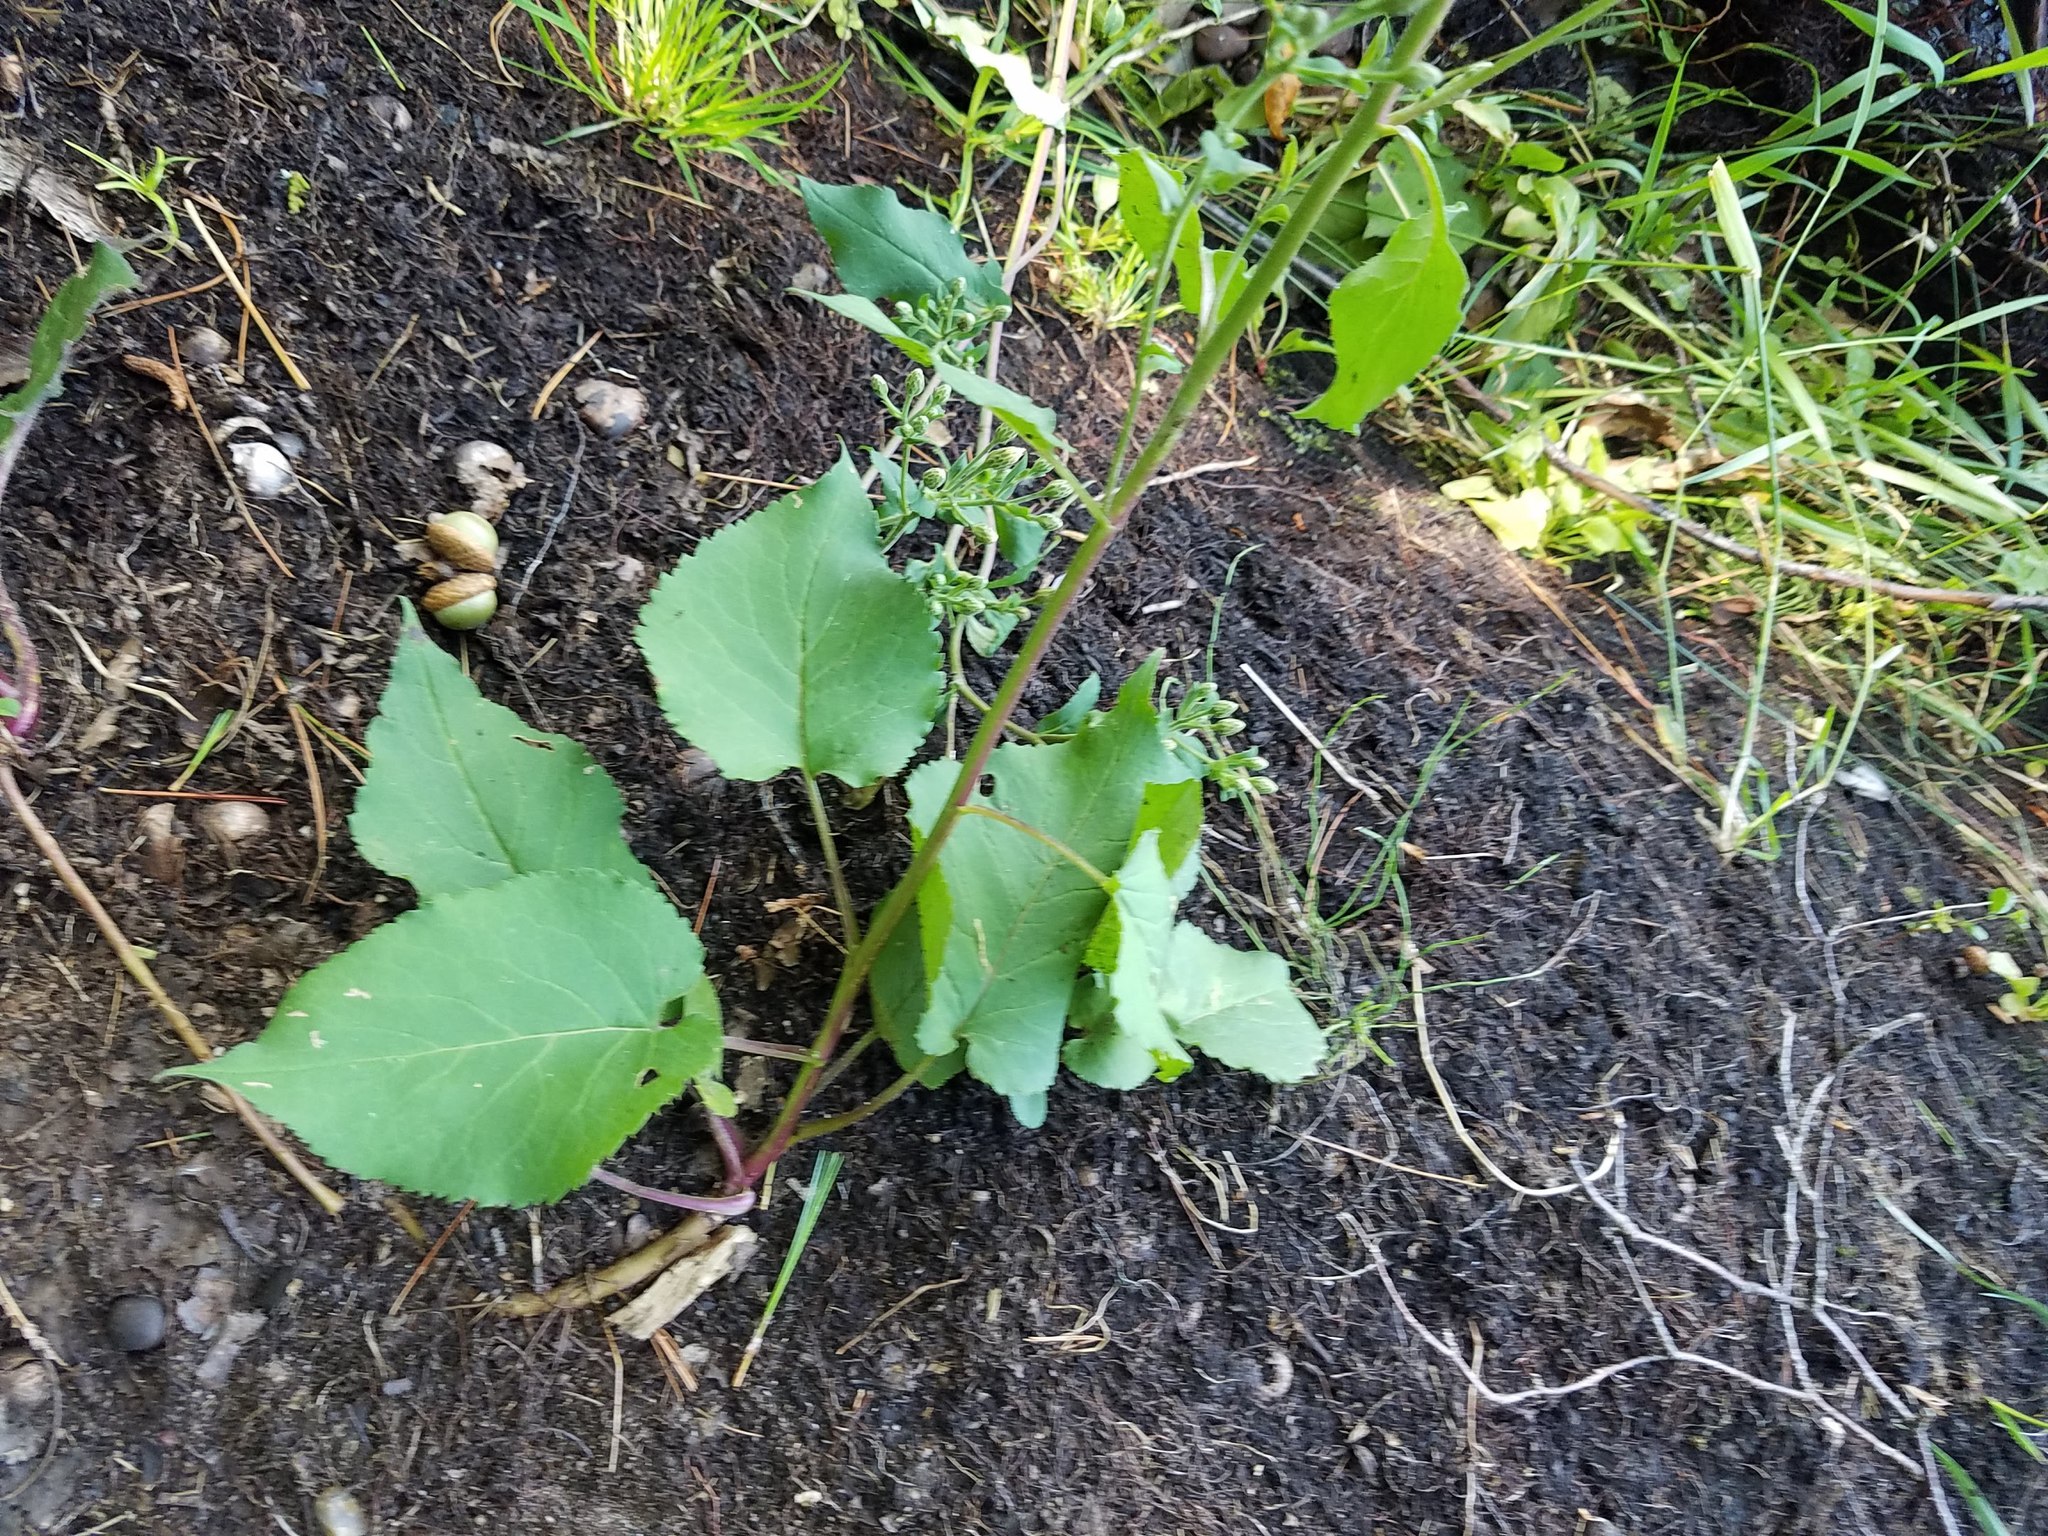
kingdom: Plantae
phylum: Tracheophyta
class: Magnoliopsida
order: Asterales
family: Asteraceae
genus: Eurybia
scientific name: Eurybia macrophylla
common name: Big-leaved aster
